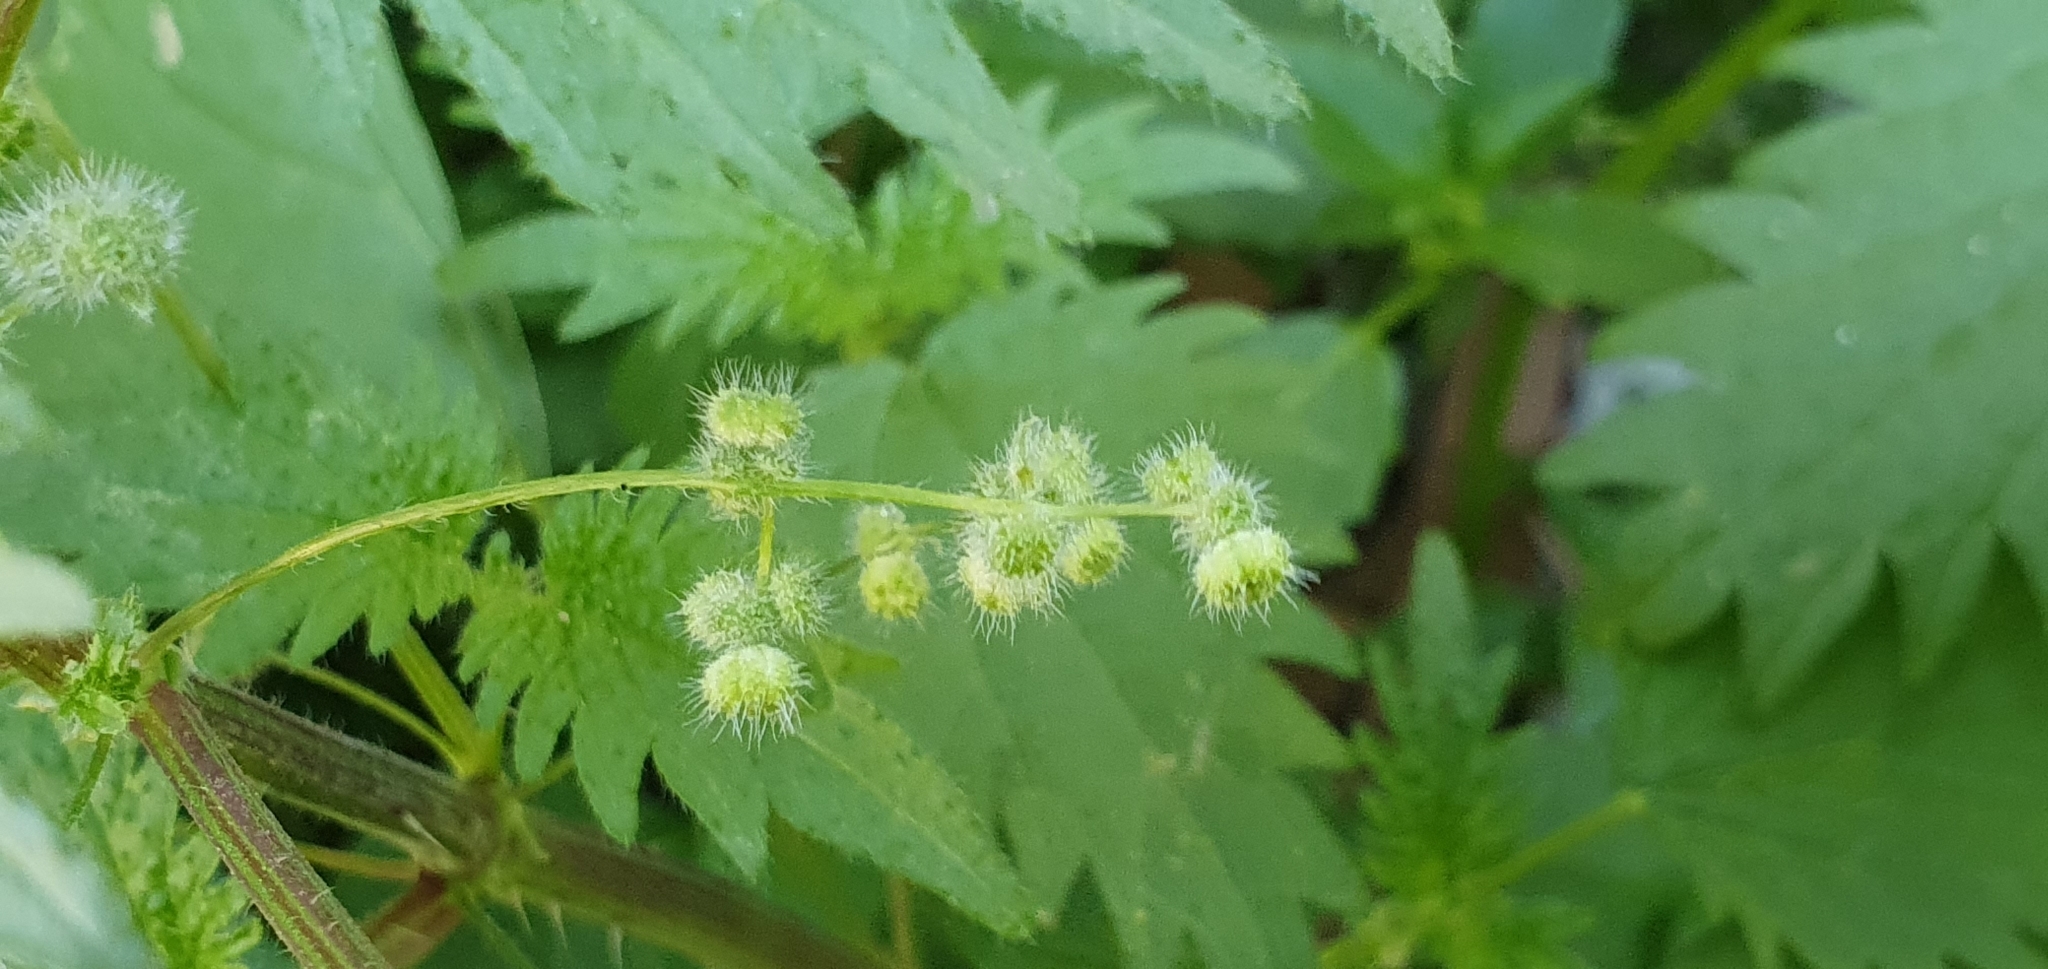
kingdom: Plantae
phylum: Tracheophyta
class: Magnoliopsida
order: Rosales
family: Urticaceae
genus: Urtica
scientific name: Urtica pilulifera
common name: Roman nettle
